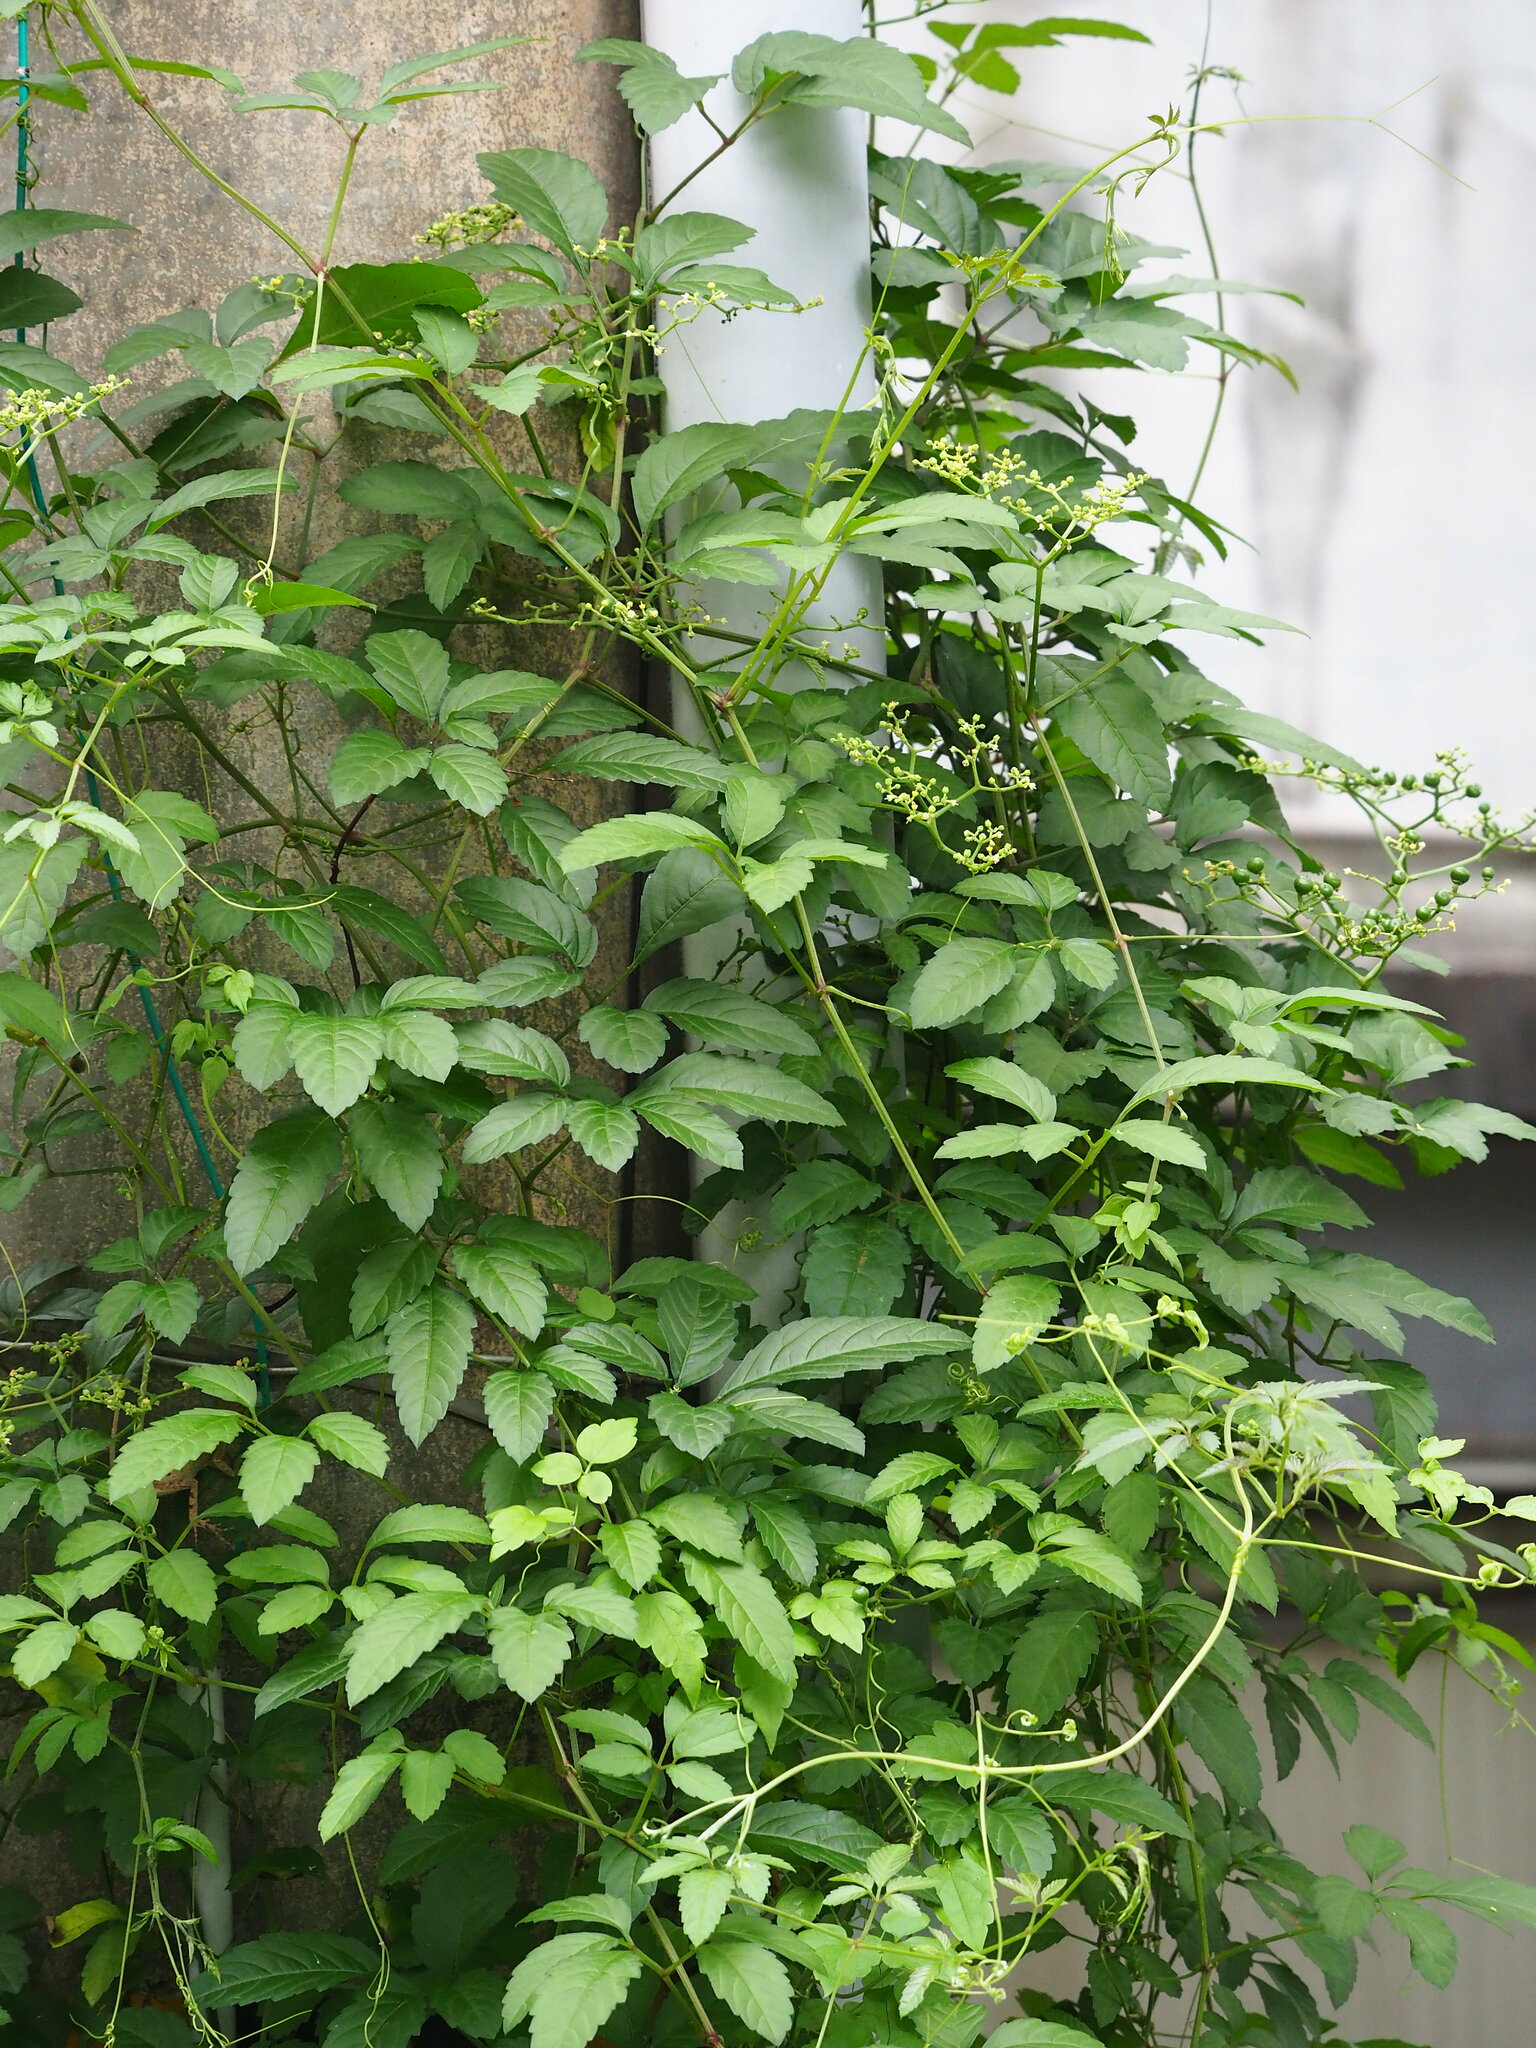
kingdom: Plantae
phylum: Tracheophyta
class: Magnoliopsida
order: Vitales
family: Vitaceae
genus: Causonis
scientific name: Causonis japonica
